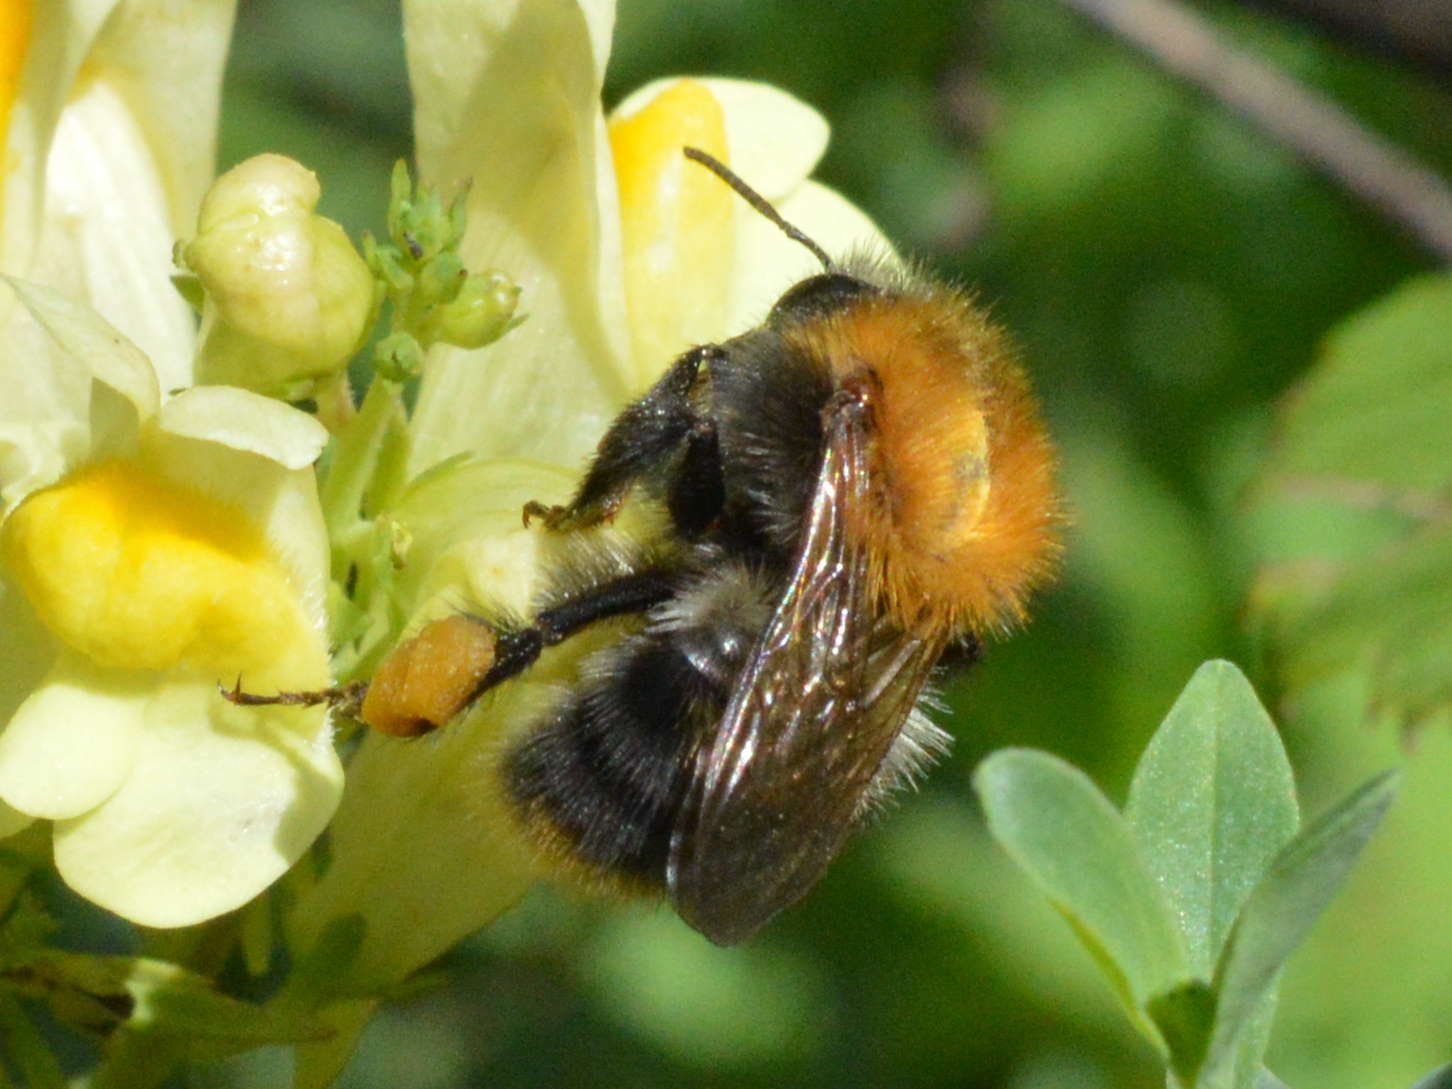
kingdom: Animalia
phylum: Arthropoda
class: Insecta
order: Hymenoptera
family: Apidae
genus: Bombus
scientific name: Bombus pascuorum
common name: Common carder bee
